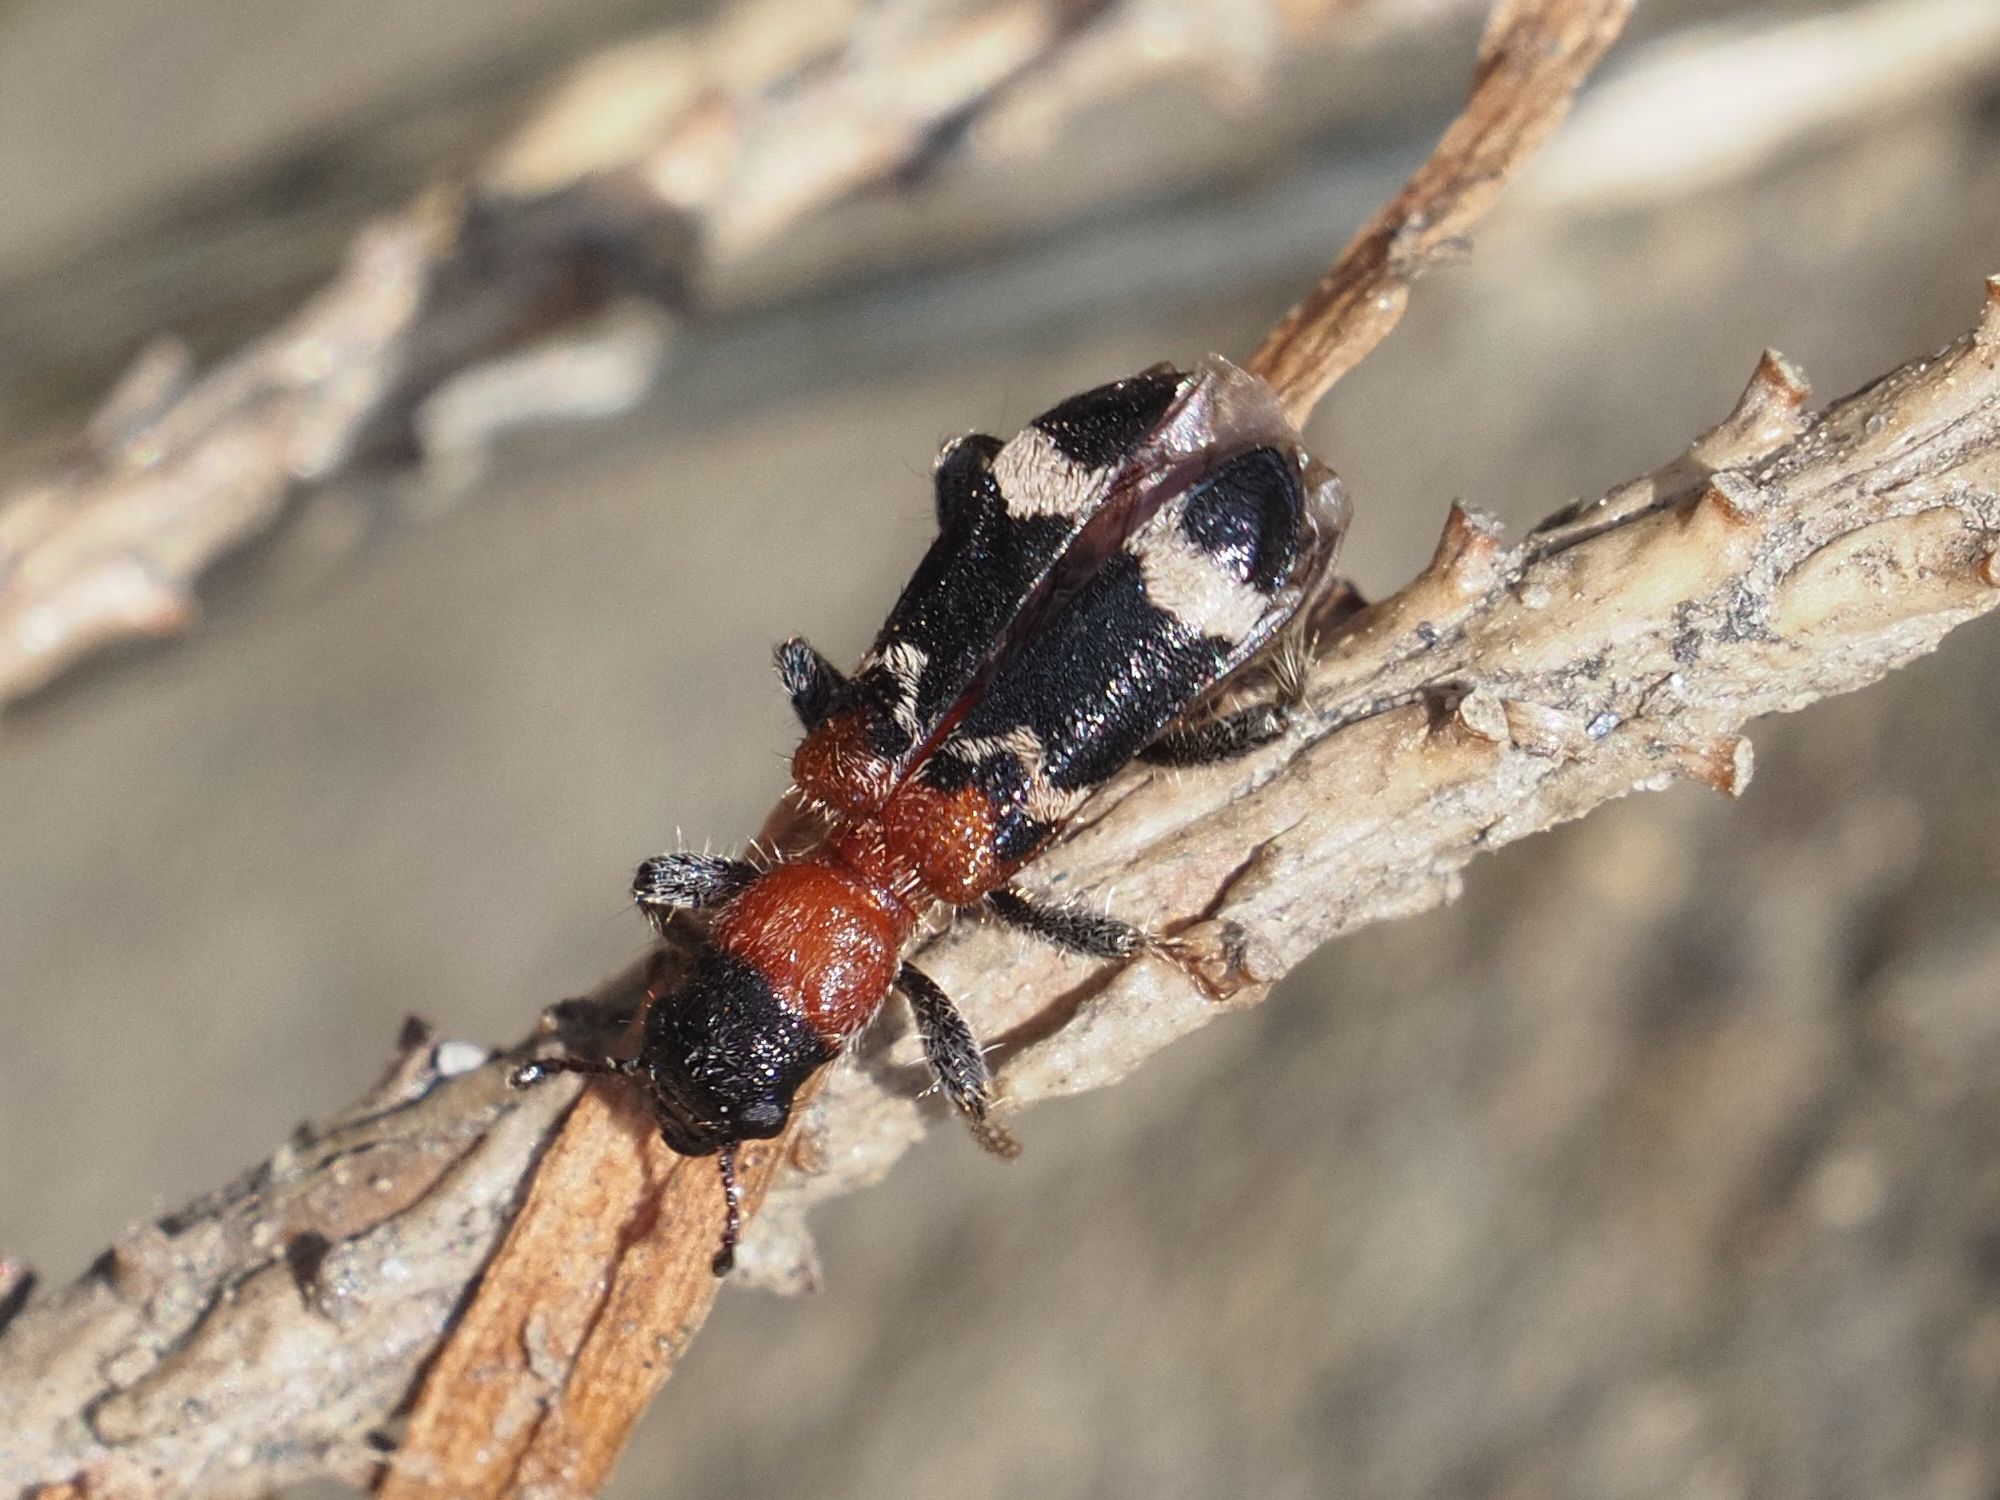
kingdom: Animalia
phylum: Arthropoda
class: Insecta
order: Coleoptera
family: Cleridae
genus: Thanasimus
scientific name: Thanasimus formicarius
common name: Ant beetle
